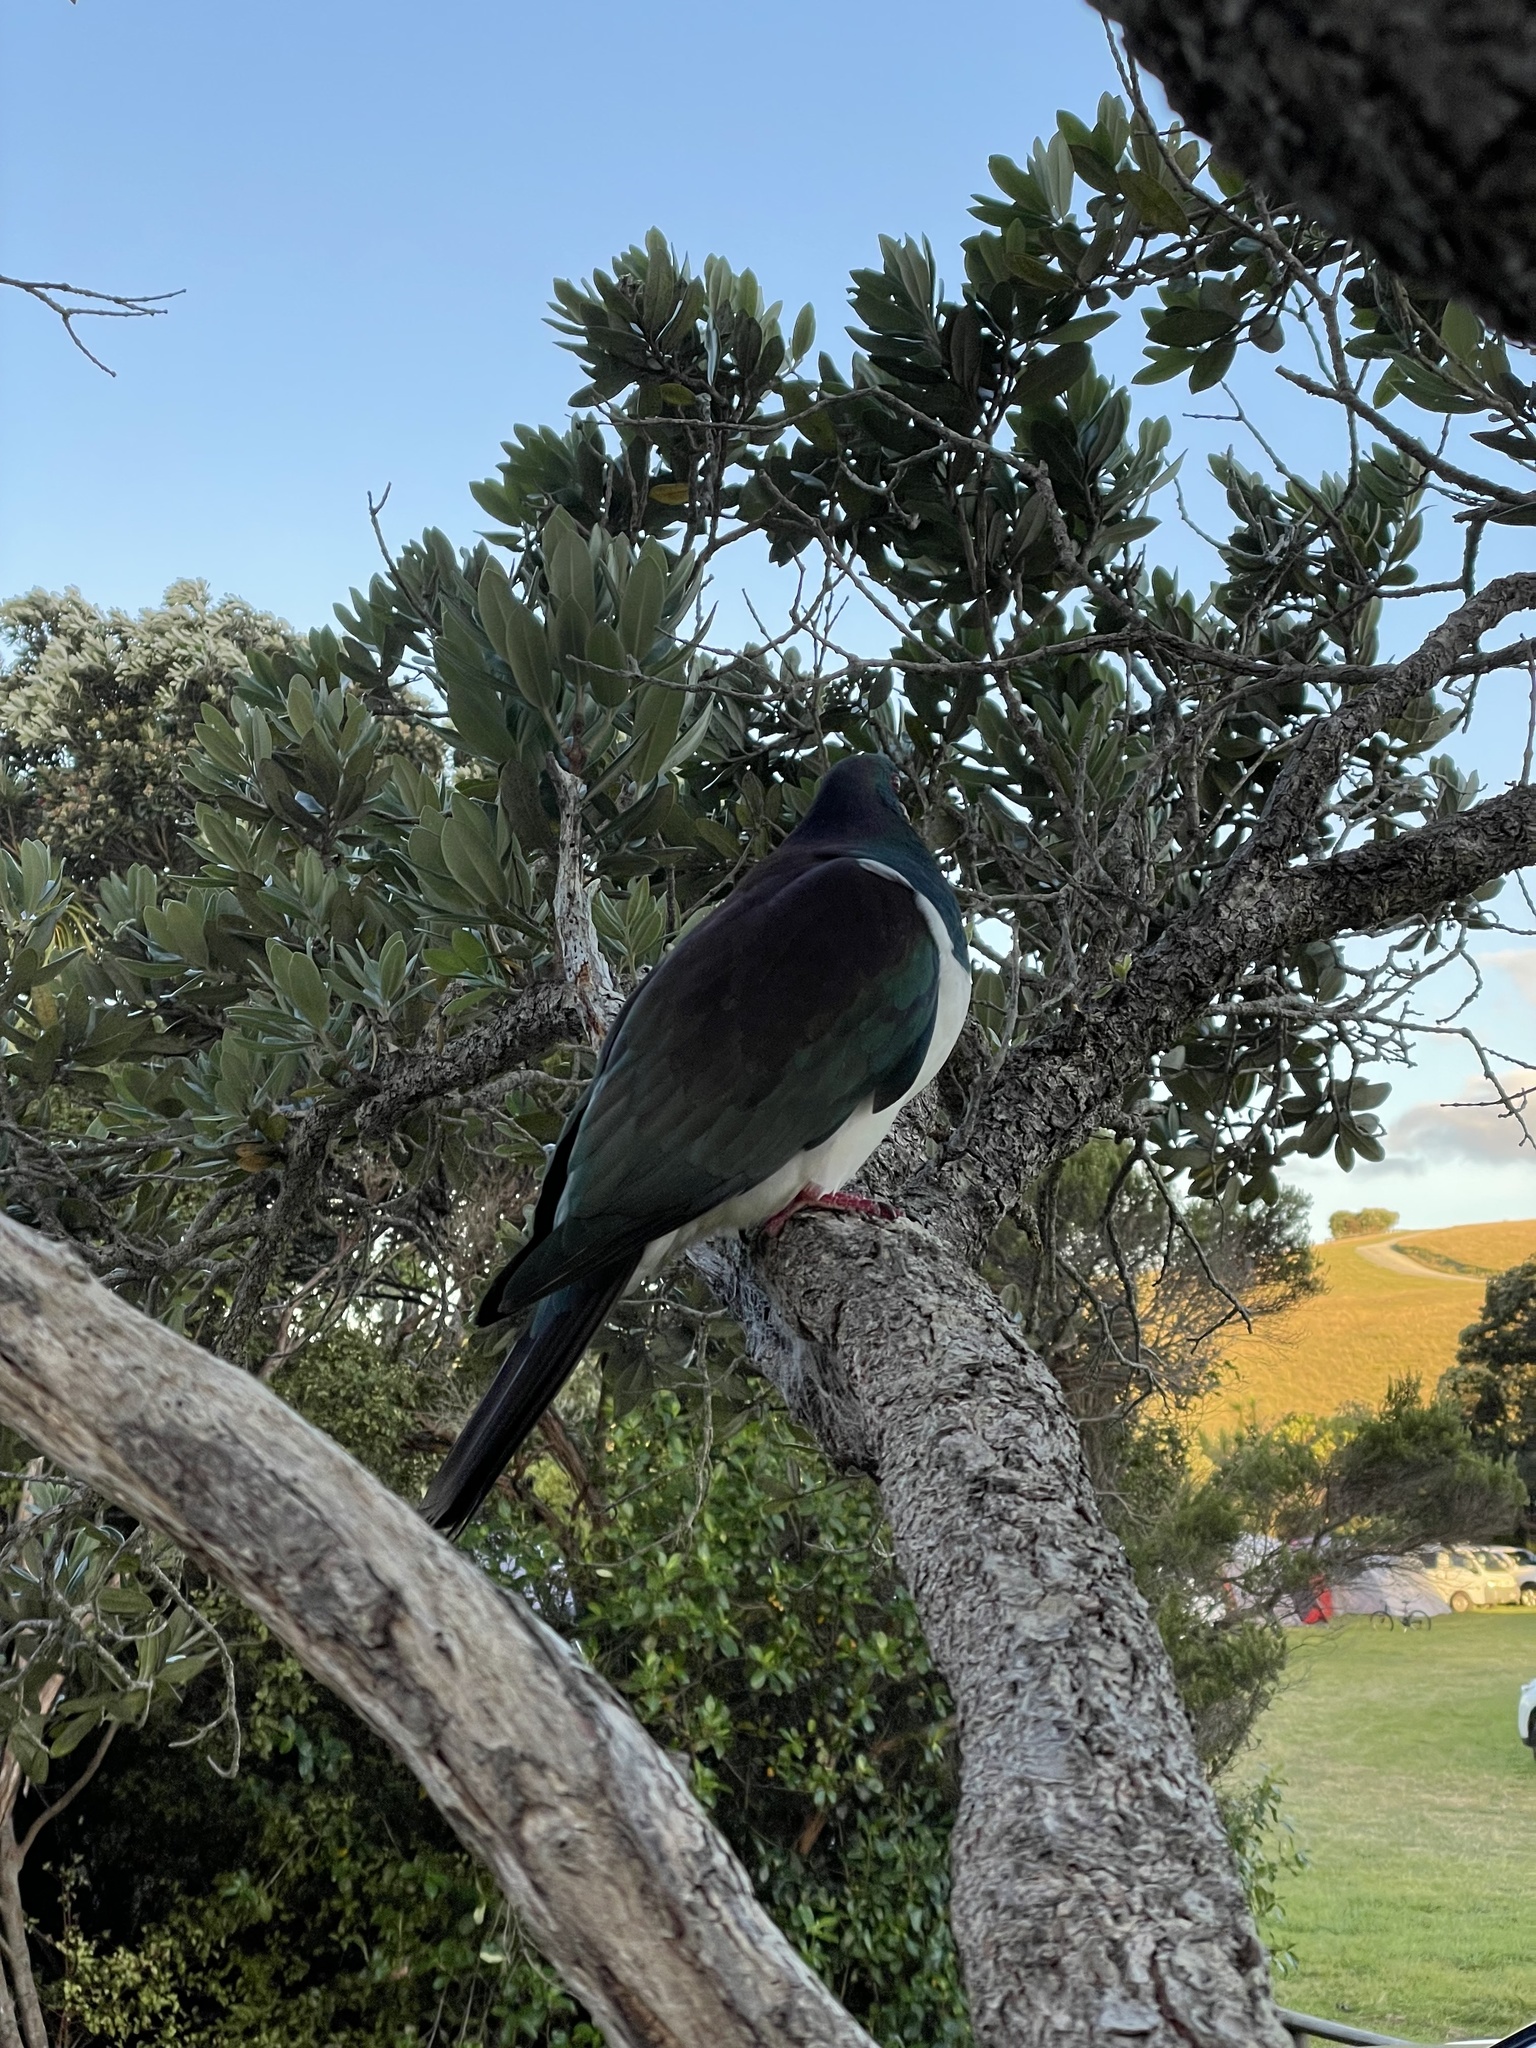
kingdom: Animalia
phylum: Chordata
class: Aves
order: Columbiformes
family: Columbidae
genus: Hemiphaga
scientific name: Hemiphaga novaeseelandiae
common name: New zealand pigeon
